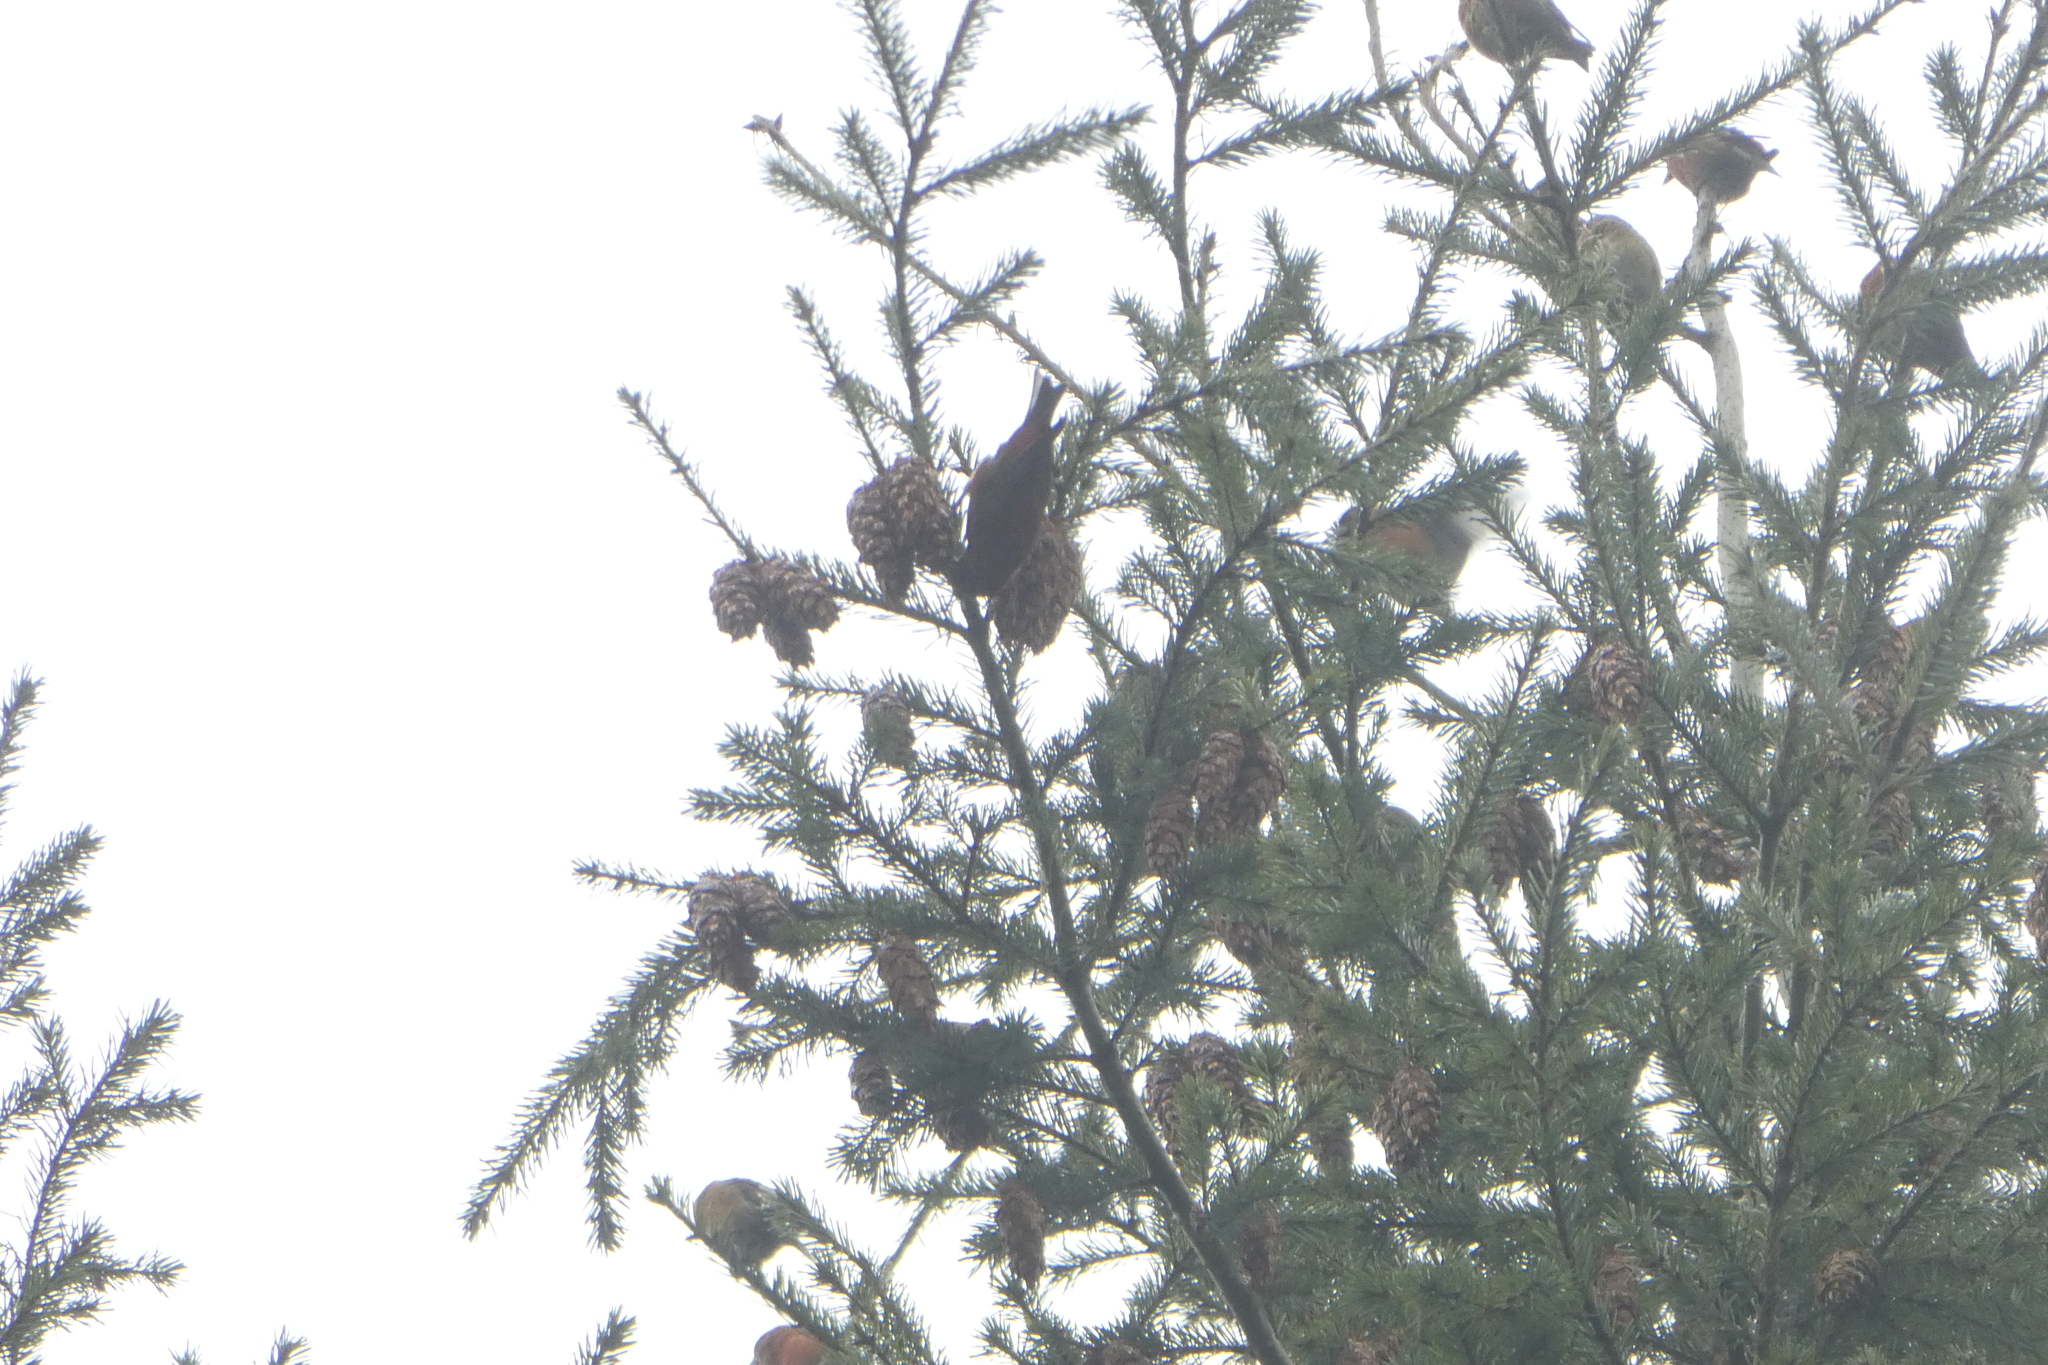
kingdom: Animalia
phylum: Chordata
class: Aves
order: Passeriformes
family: Fringillidae
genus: Loxia
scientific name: Loxia curvirostra
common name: Red crossbill
